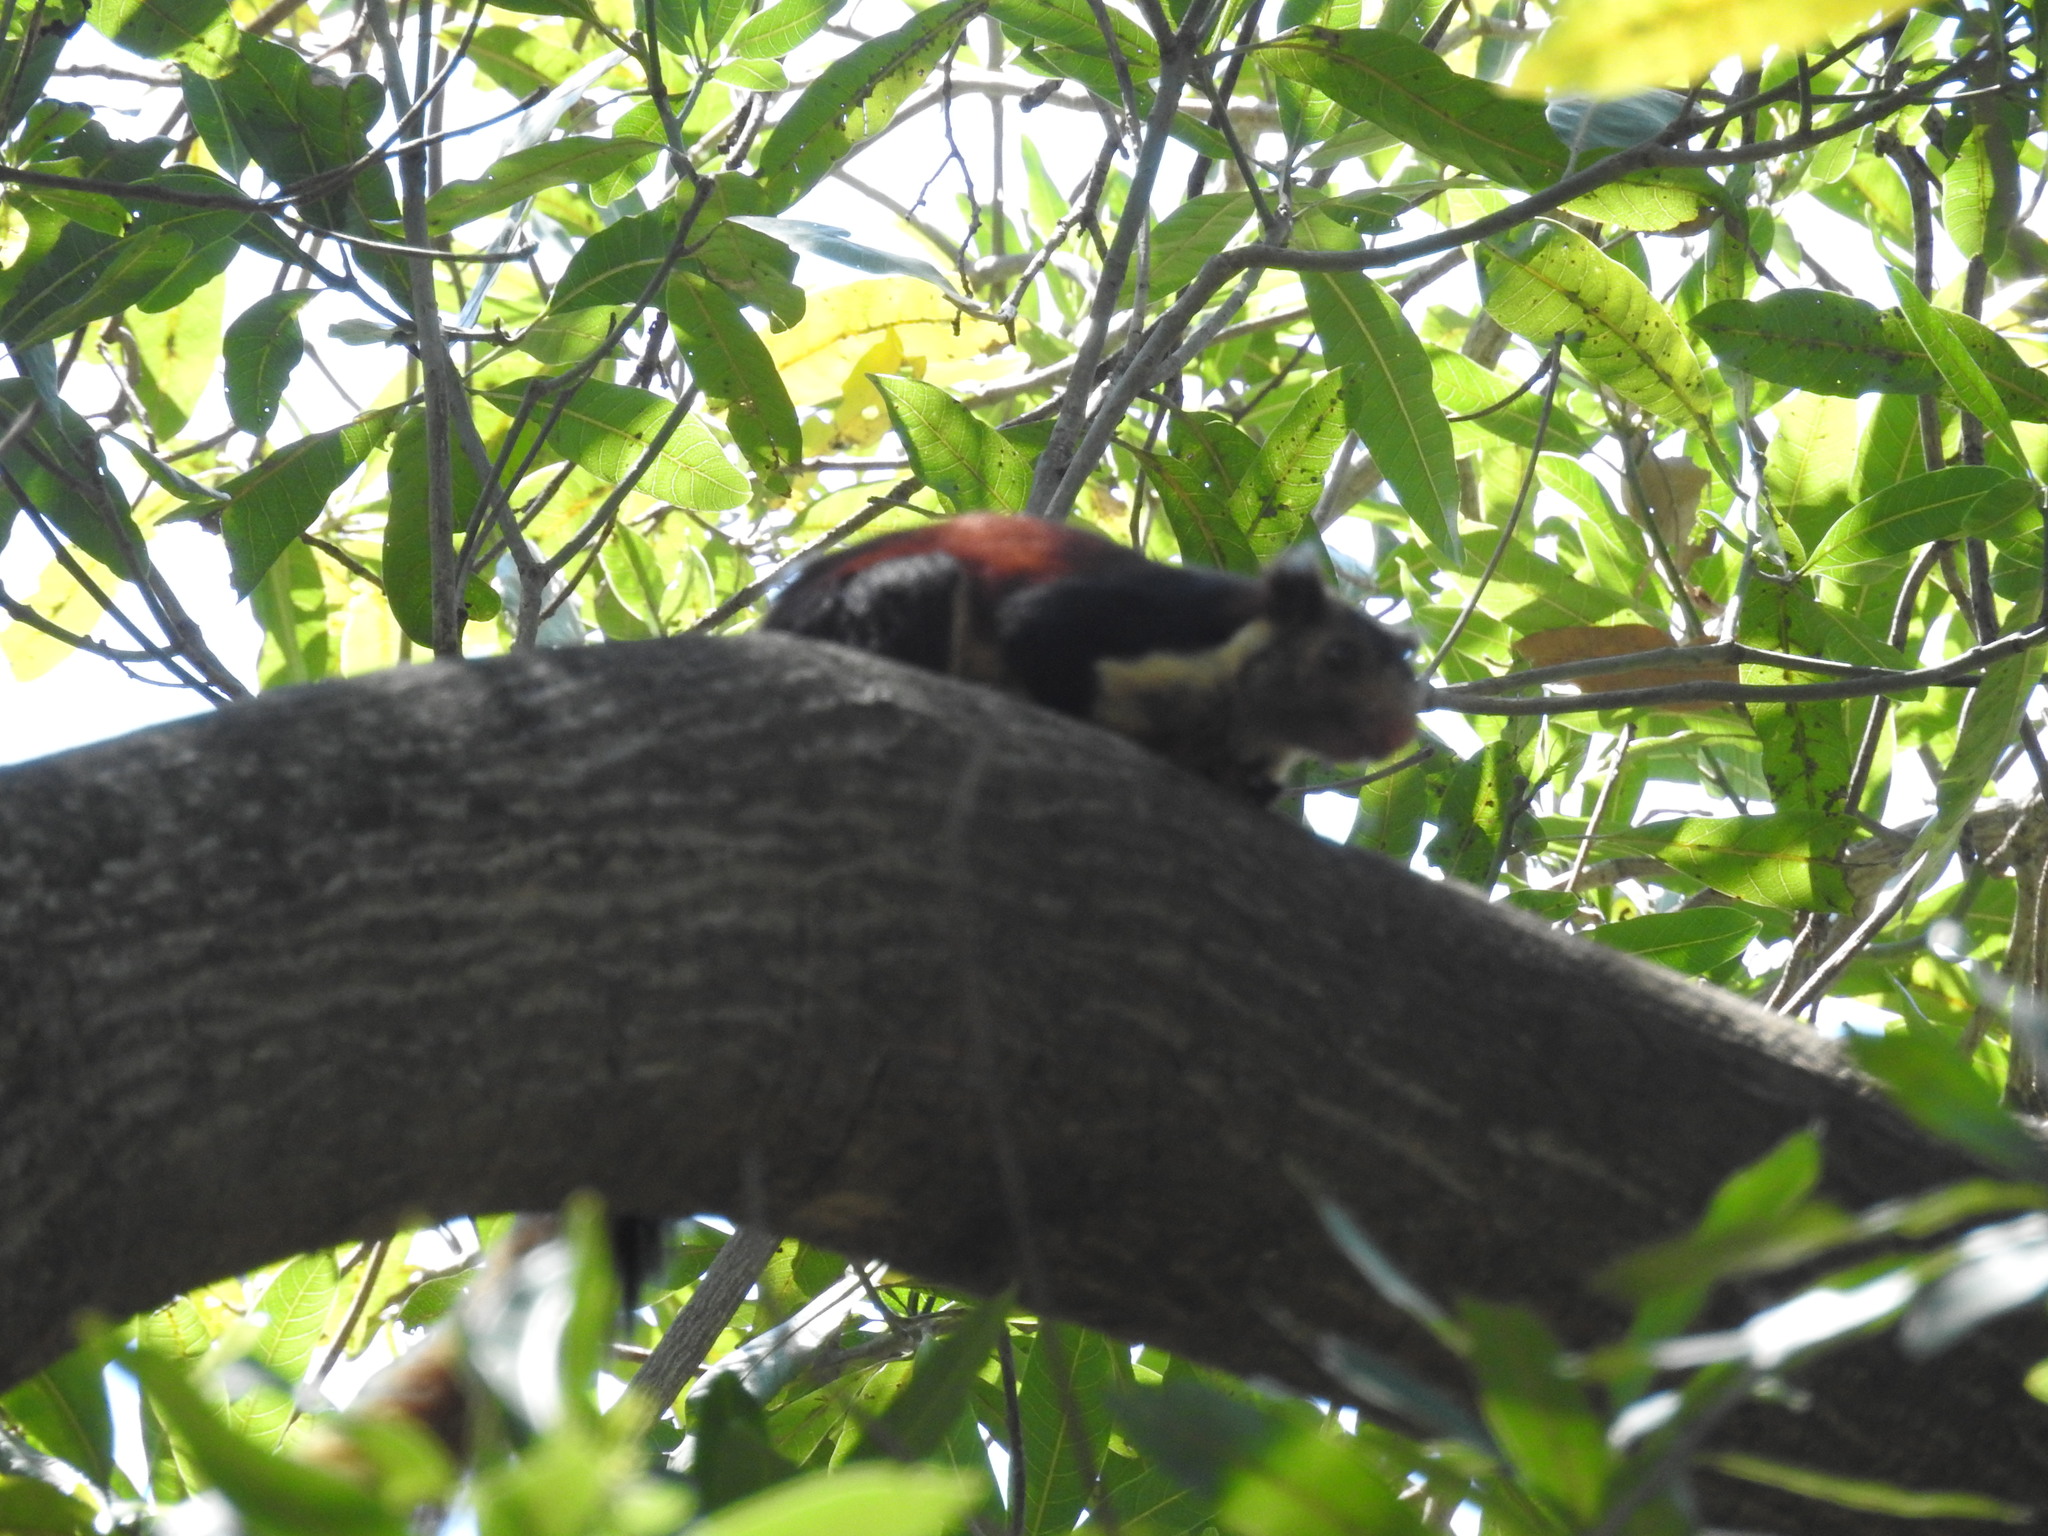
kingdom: Animalia
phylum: Chordata
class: Mammalia
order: Rodentia
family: Sciuridae
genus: Ratufa
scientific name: Ratufa indica
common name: Indian giant squirrel
